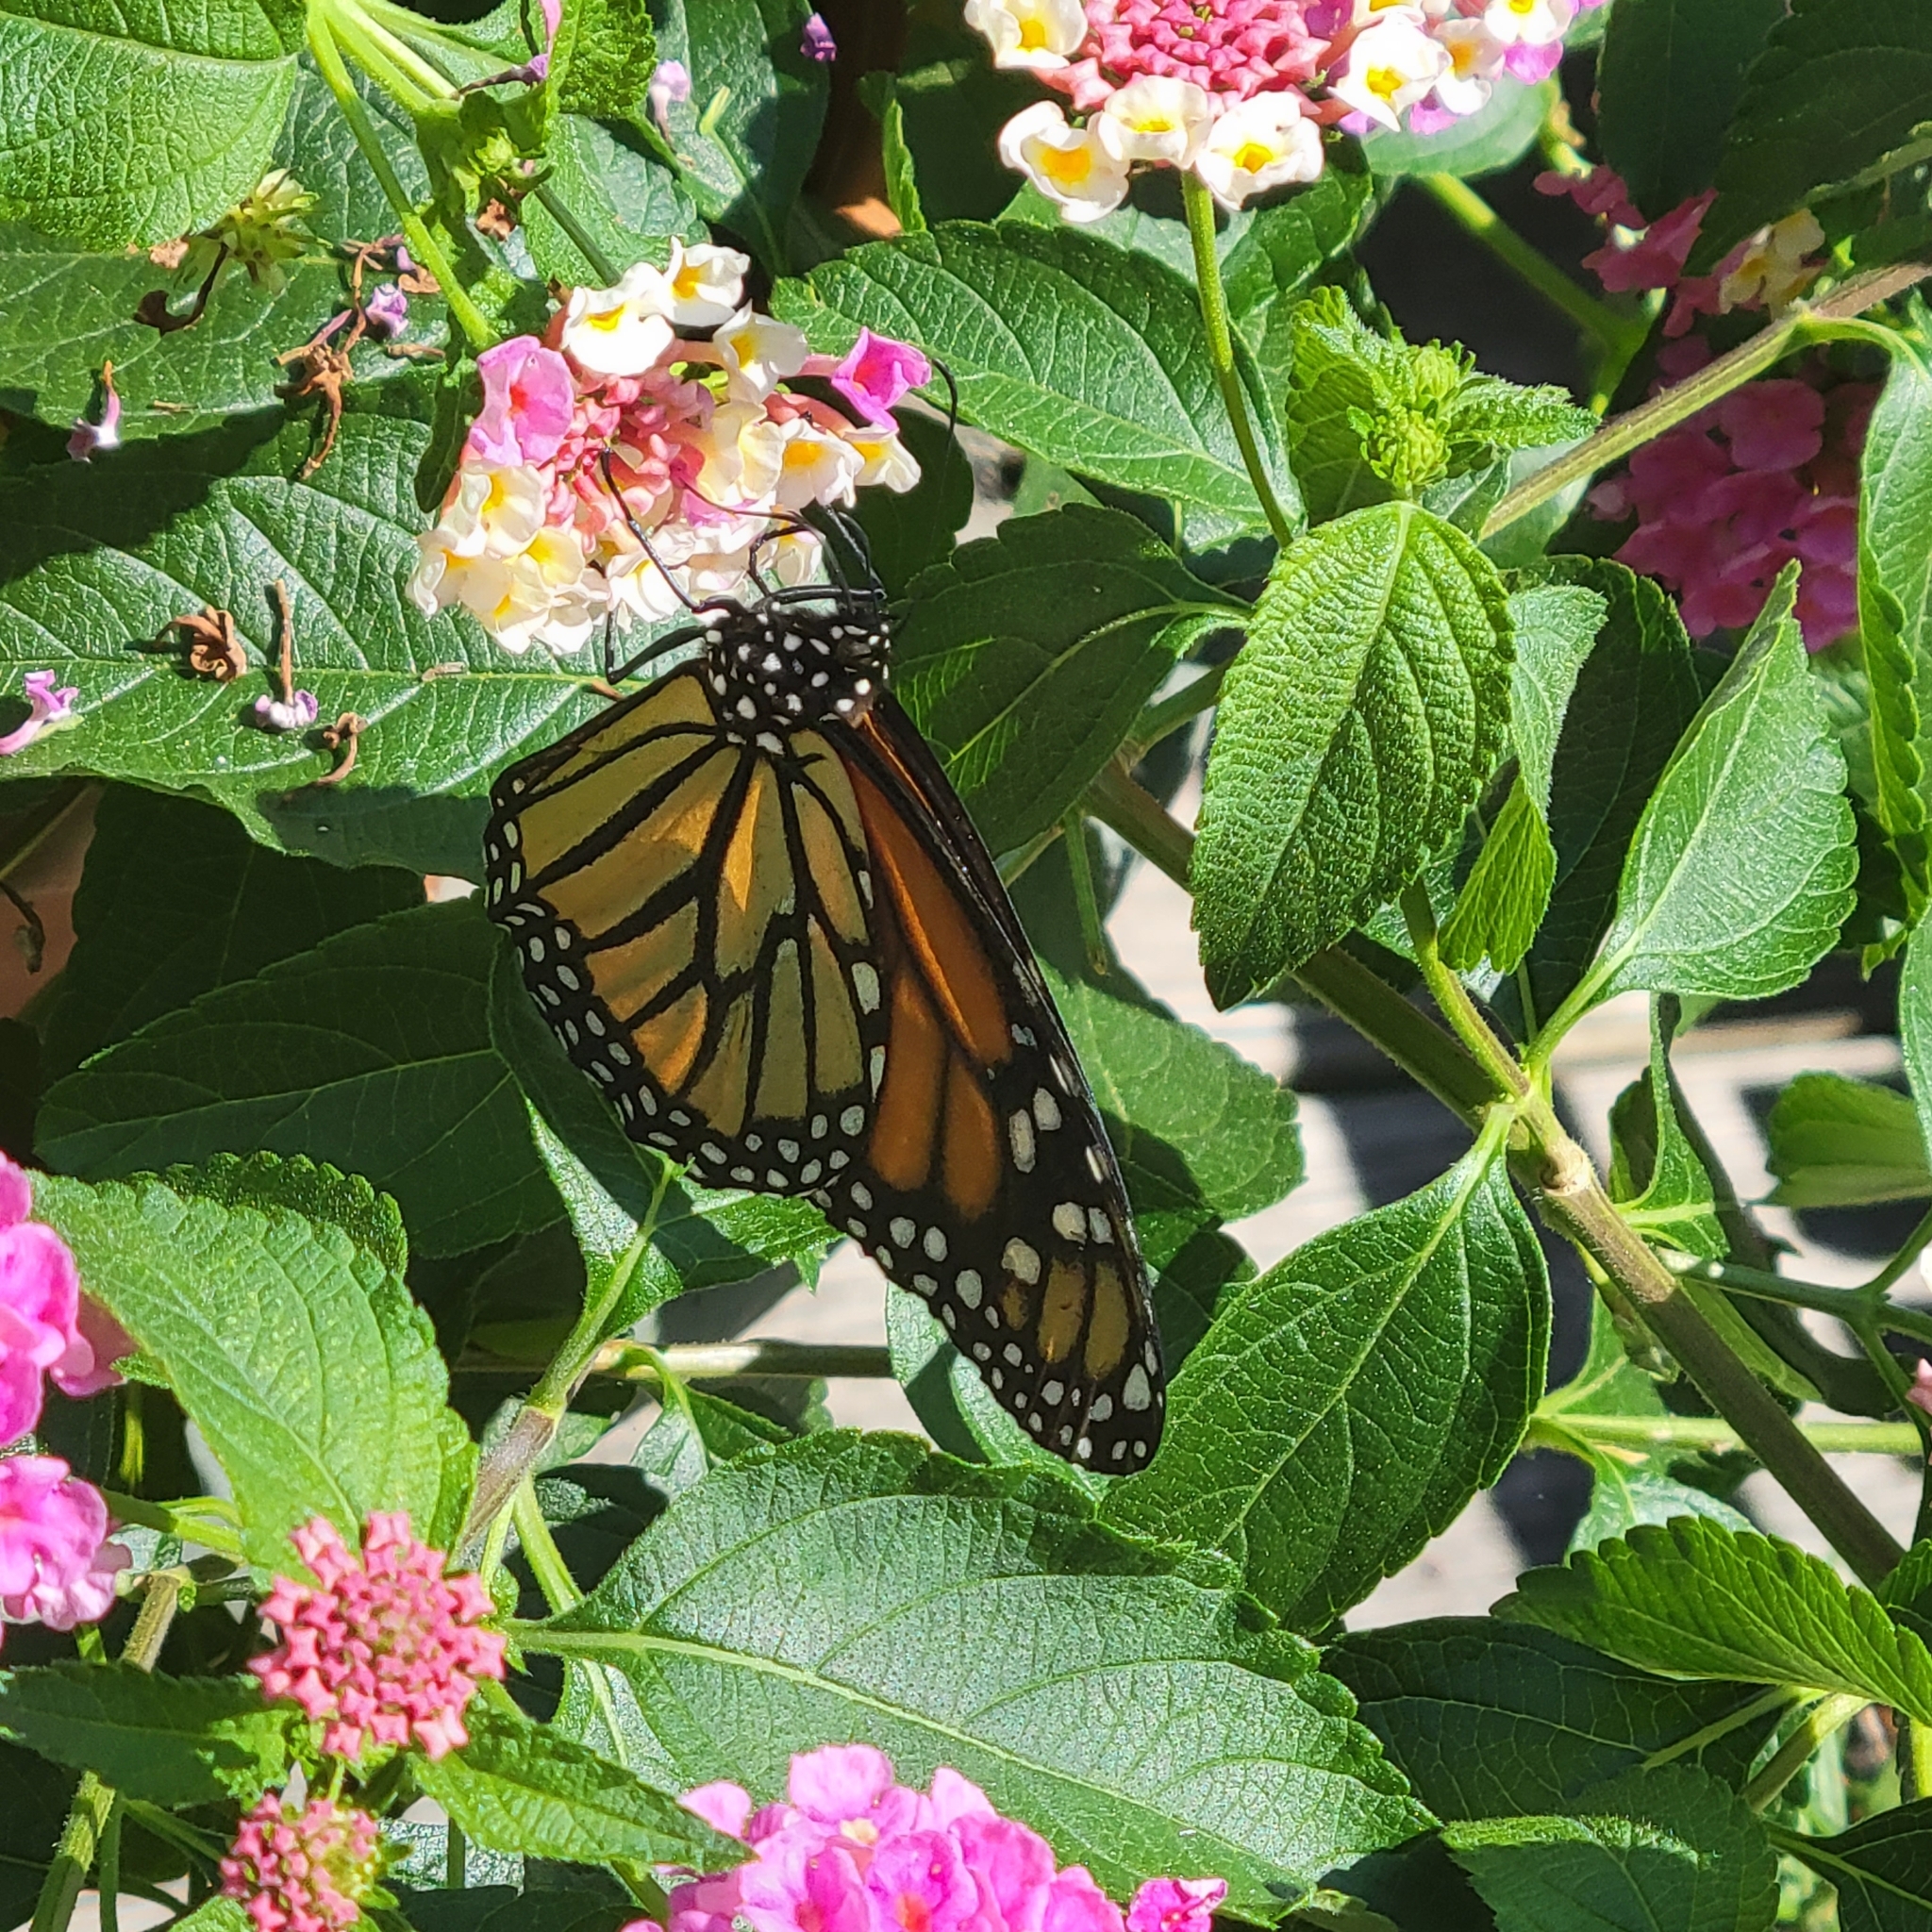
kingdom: Animalia
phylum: Arthropoda
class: Insecta
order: Lepidoptera
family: Nymphalidae
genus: Danaus
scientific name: Danaus plexippus
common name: Monarch
